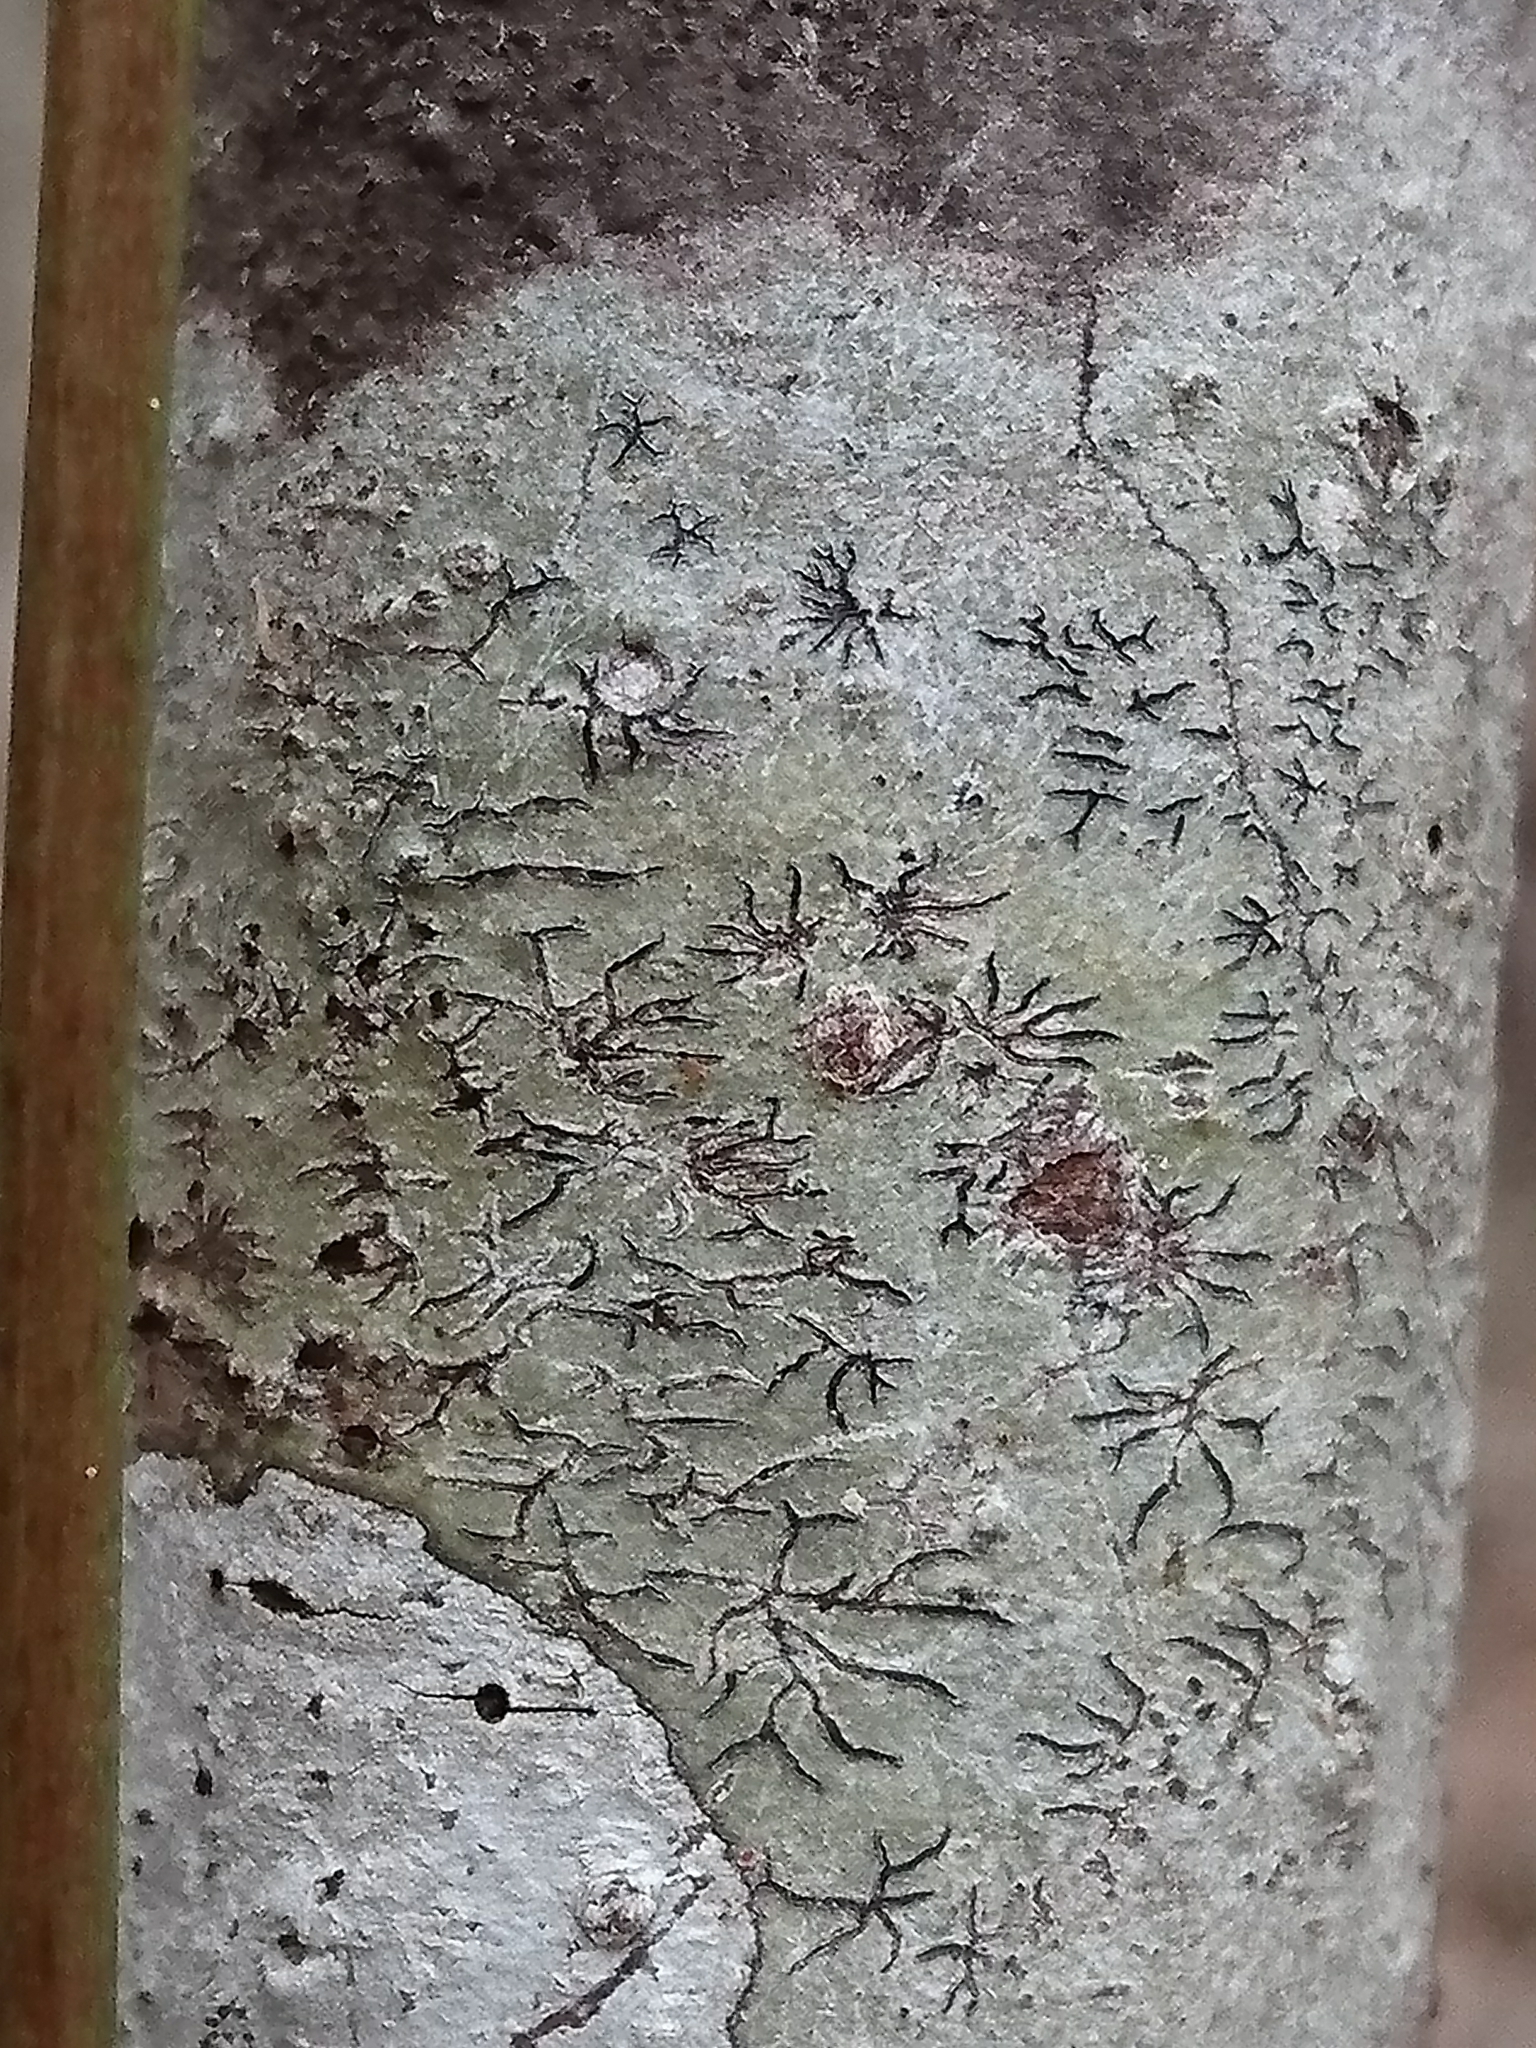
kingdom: Fungi
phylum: Ascomycota
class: Lecanoromycetes
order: Ostropales
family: Graphidaceae
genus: Leiorreuma
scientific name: Leiorreuma sericeum
